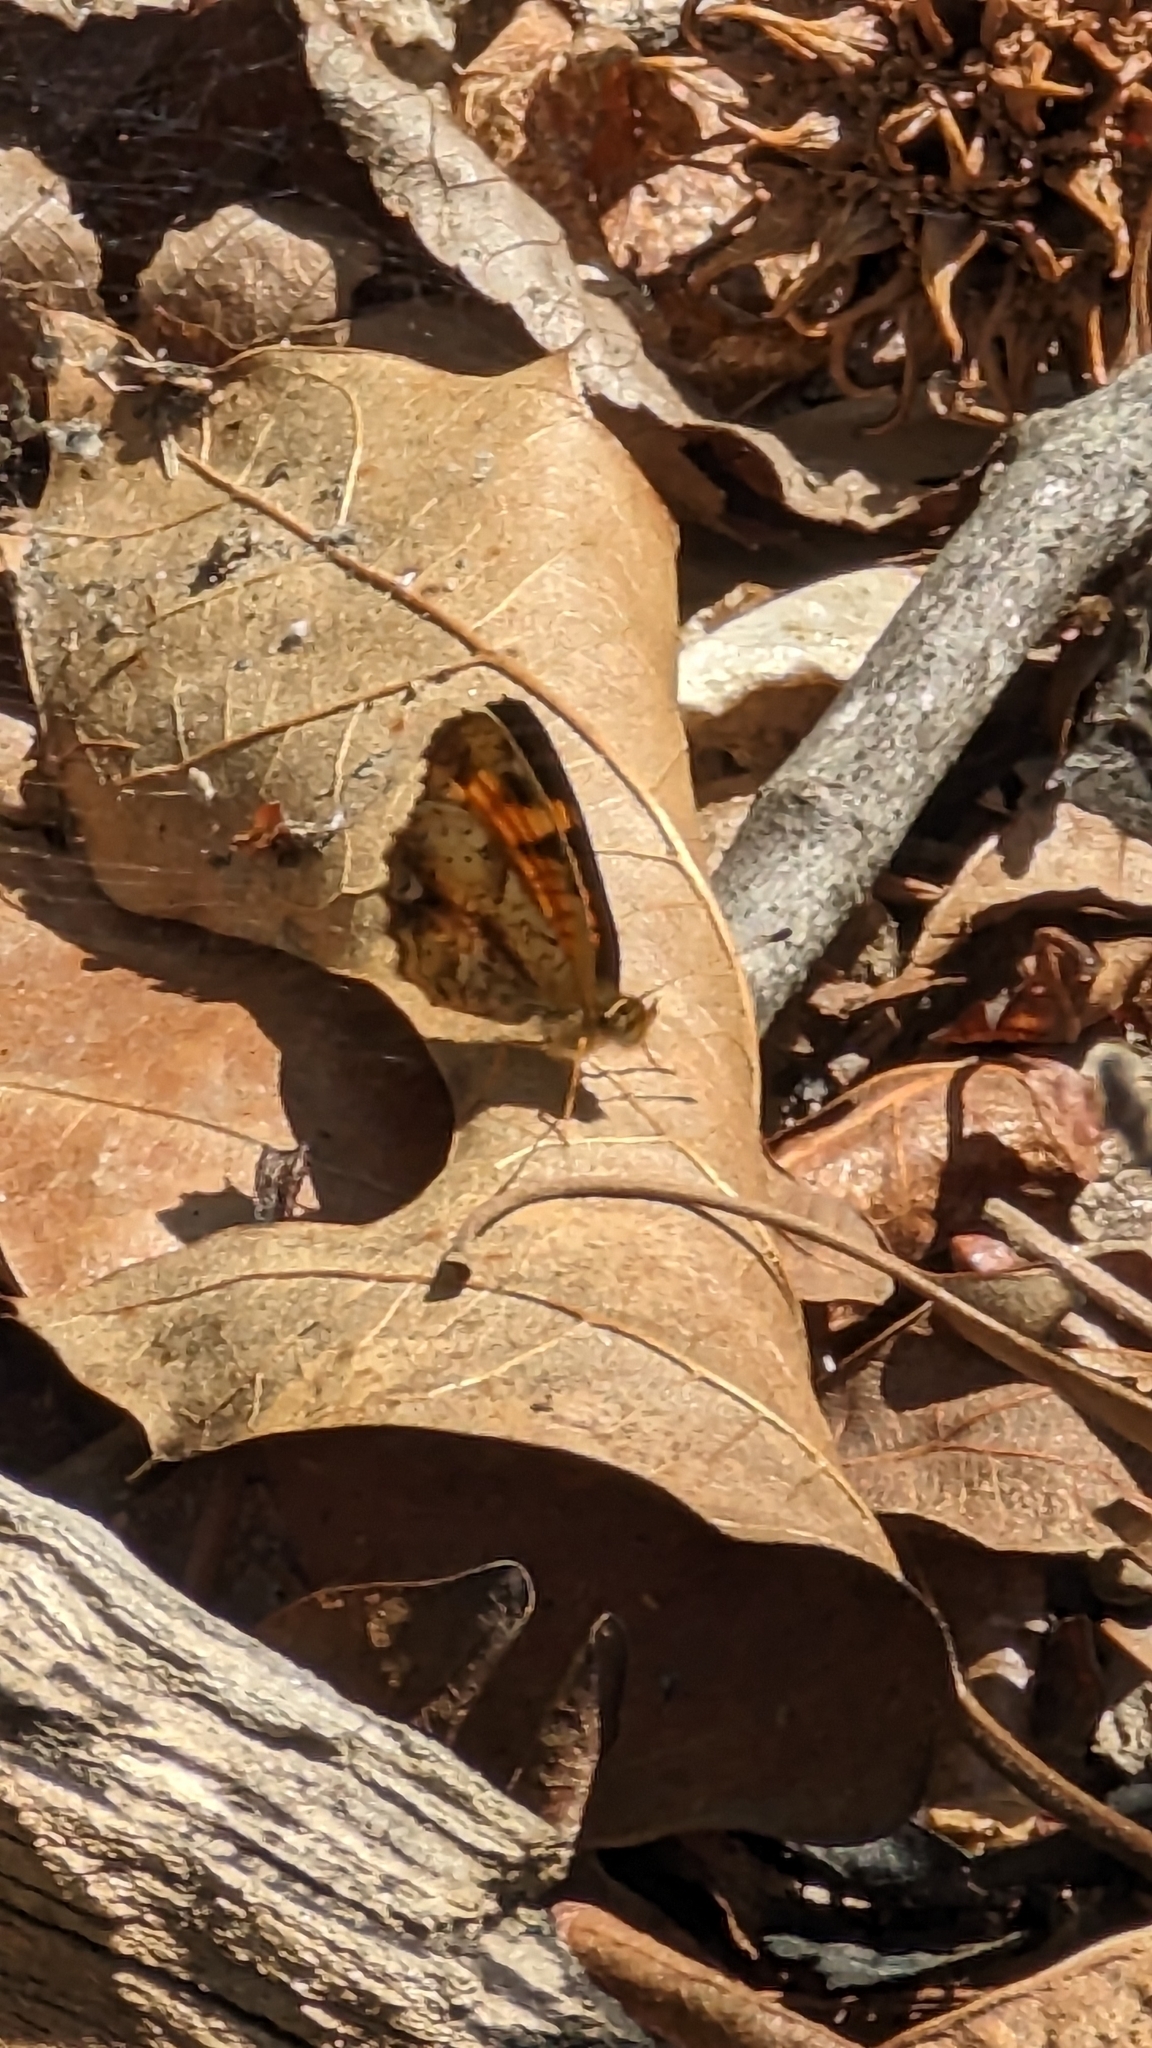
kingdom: Animalia
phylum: Arthropoda
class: Insecta
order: Lepidoptera
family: Nymphalidae
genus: Phyciodes
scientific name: Phyciodes tharos
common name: Pearl crescent
